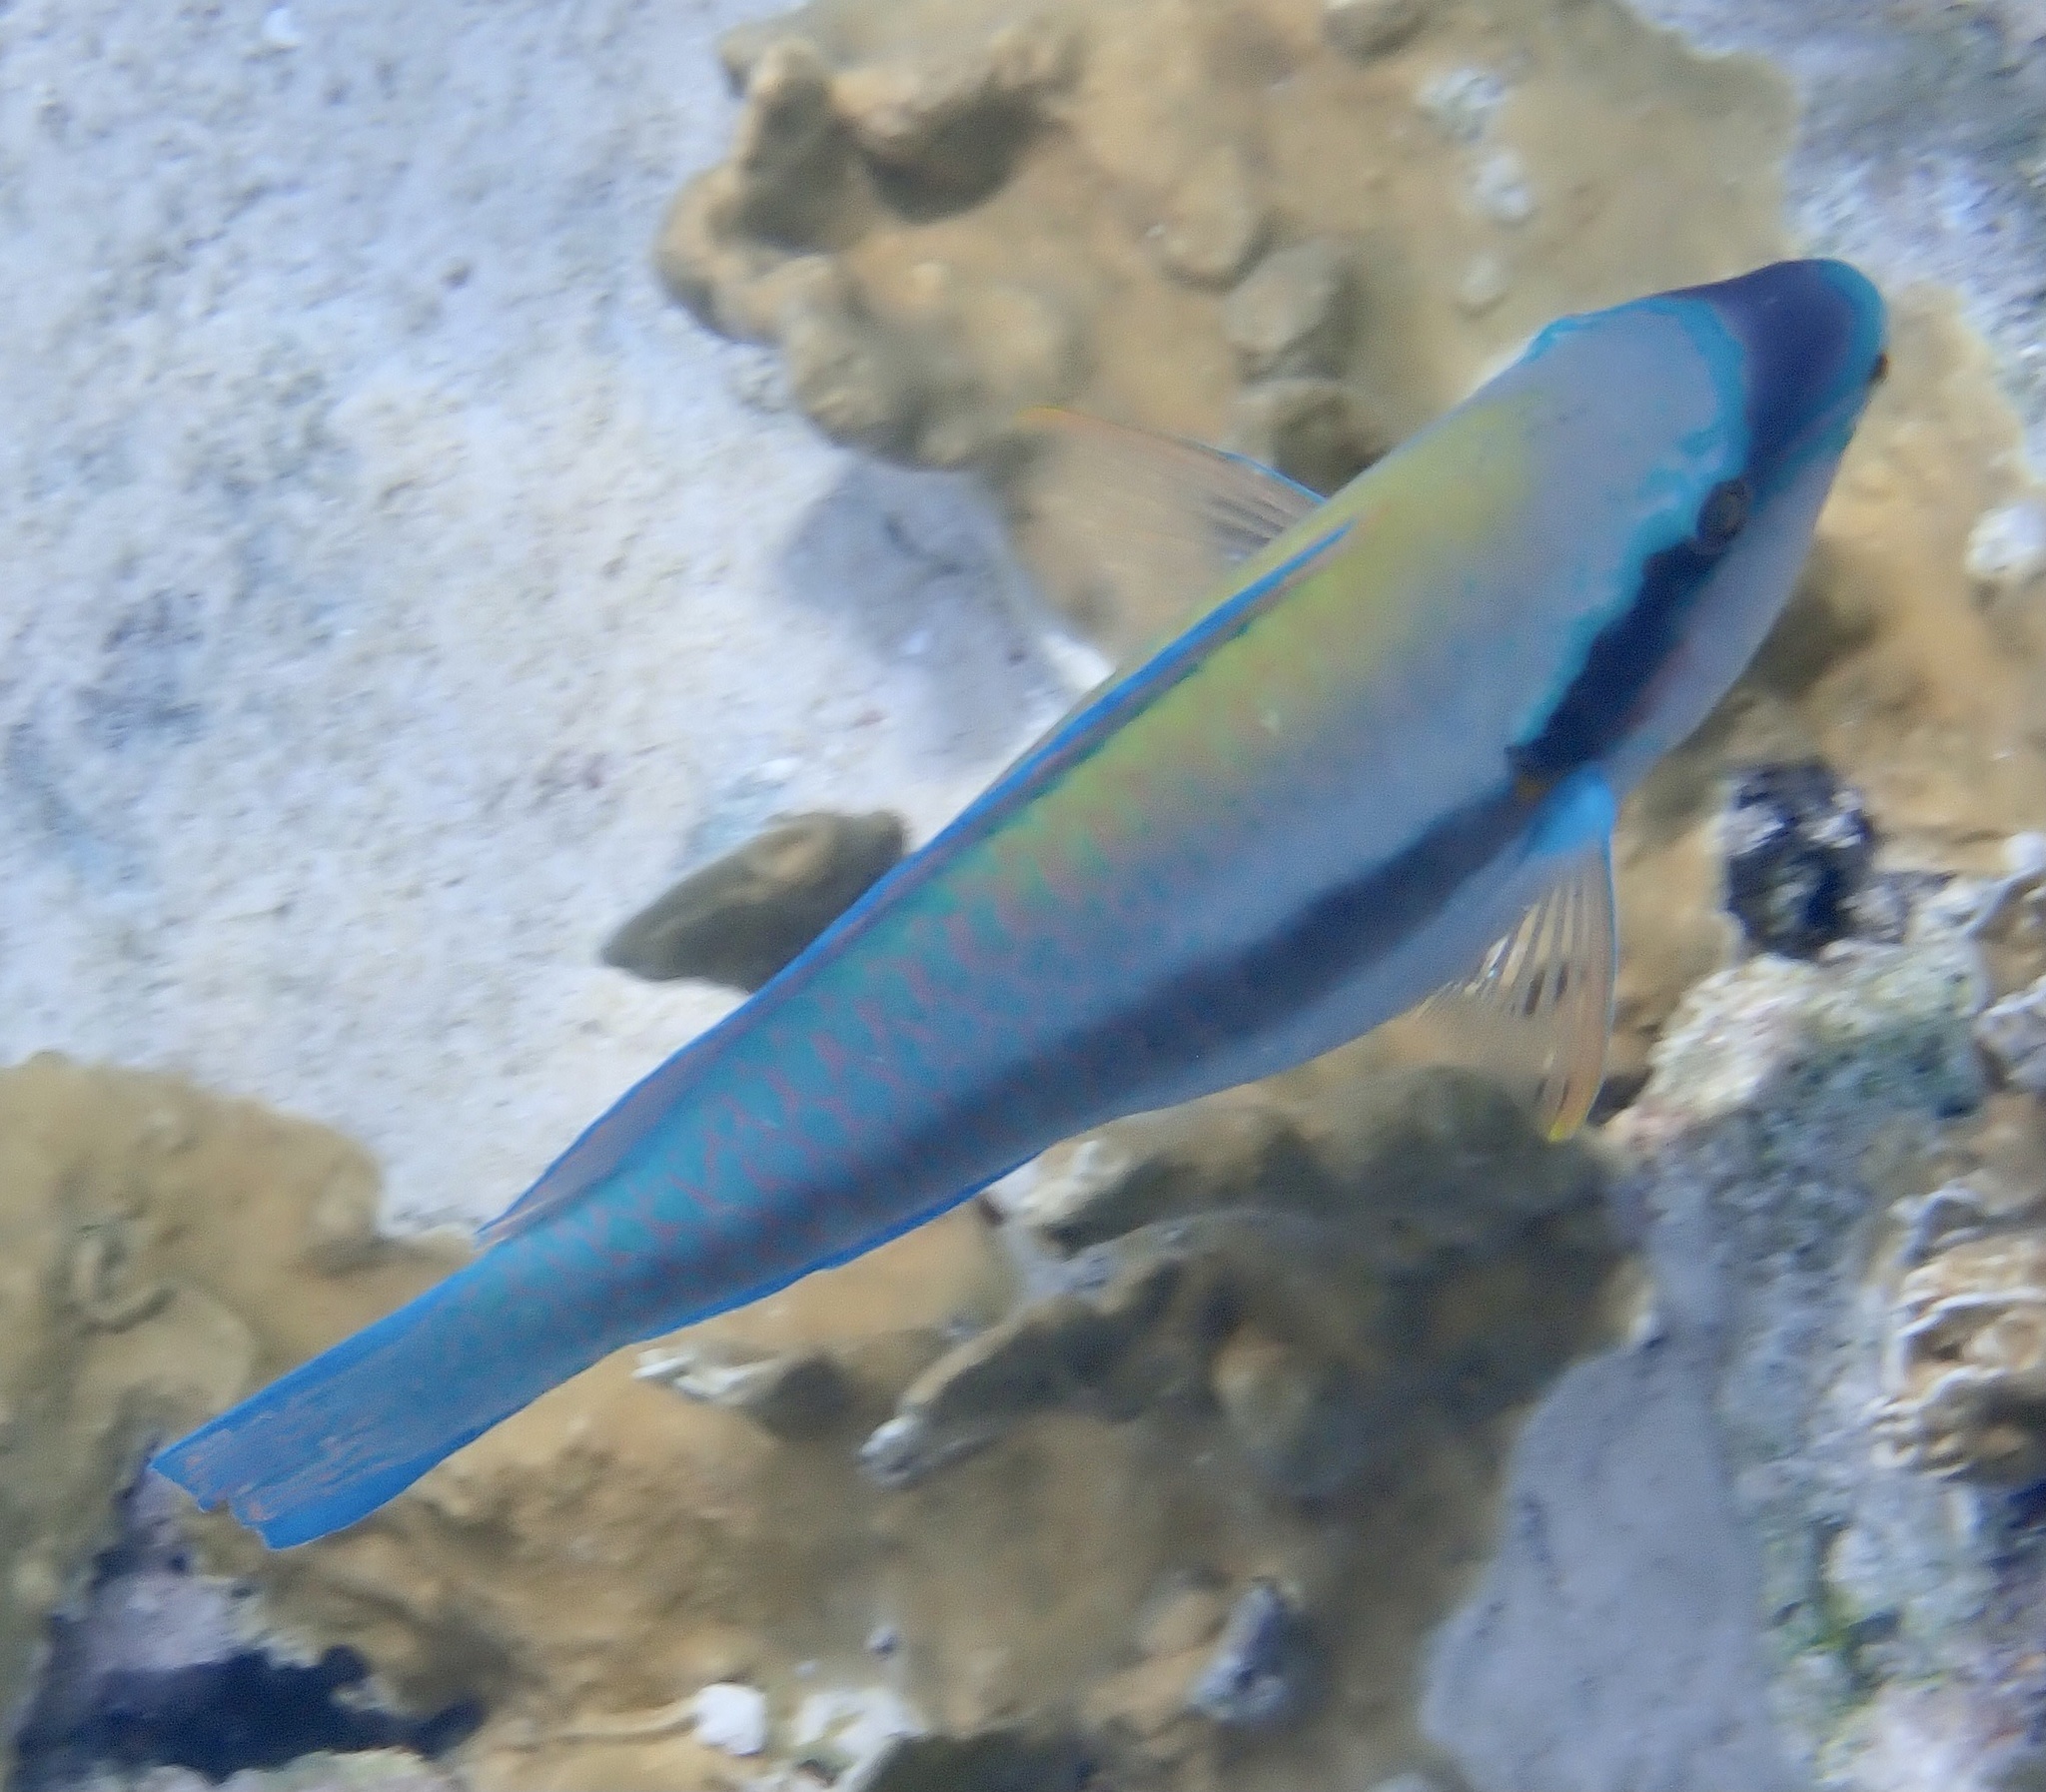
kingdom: Animalia
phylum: Chordata
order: Perciformes
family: Scaridae
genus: Scarus
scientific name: Scarus iseri
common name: Striped parrotfish
